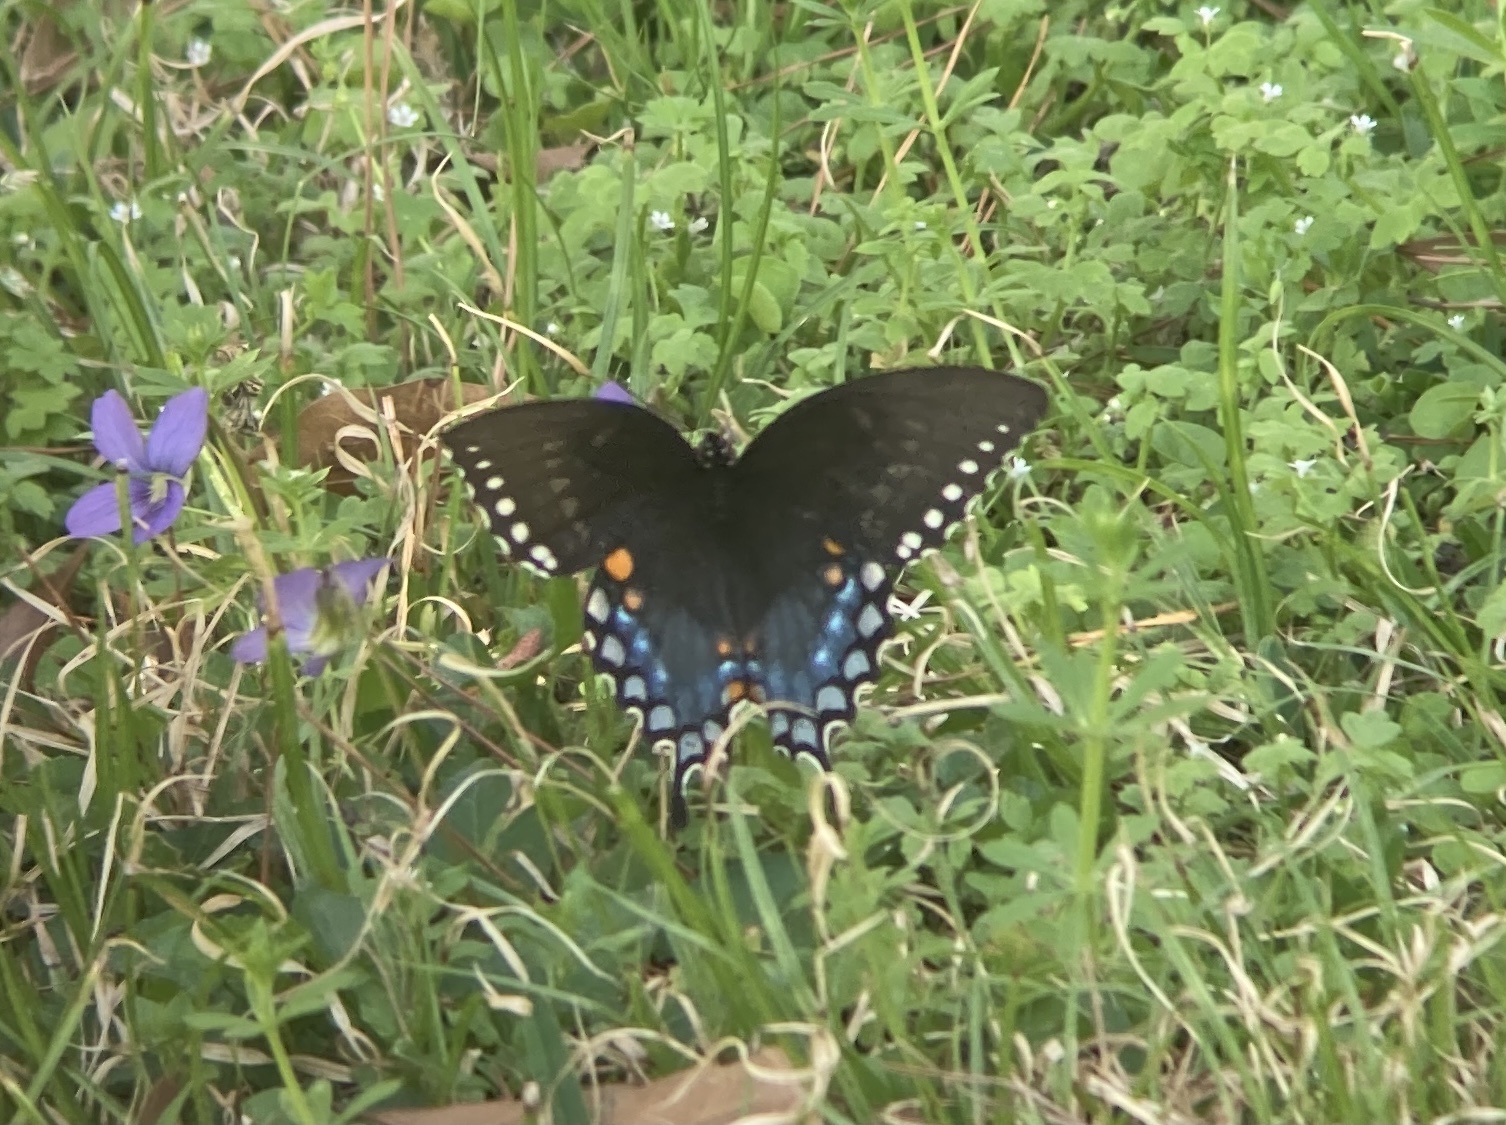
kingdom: Animalia
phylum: Arthropoda
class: Insecta
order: Lepidoptera
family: Papilionidae
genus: Papilio
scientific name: Papilio troilus
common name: Spicebush swallowtail
